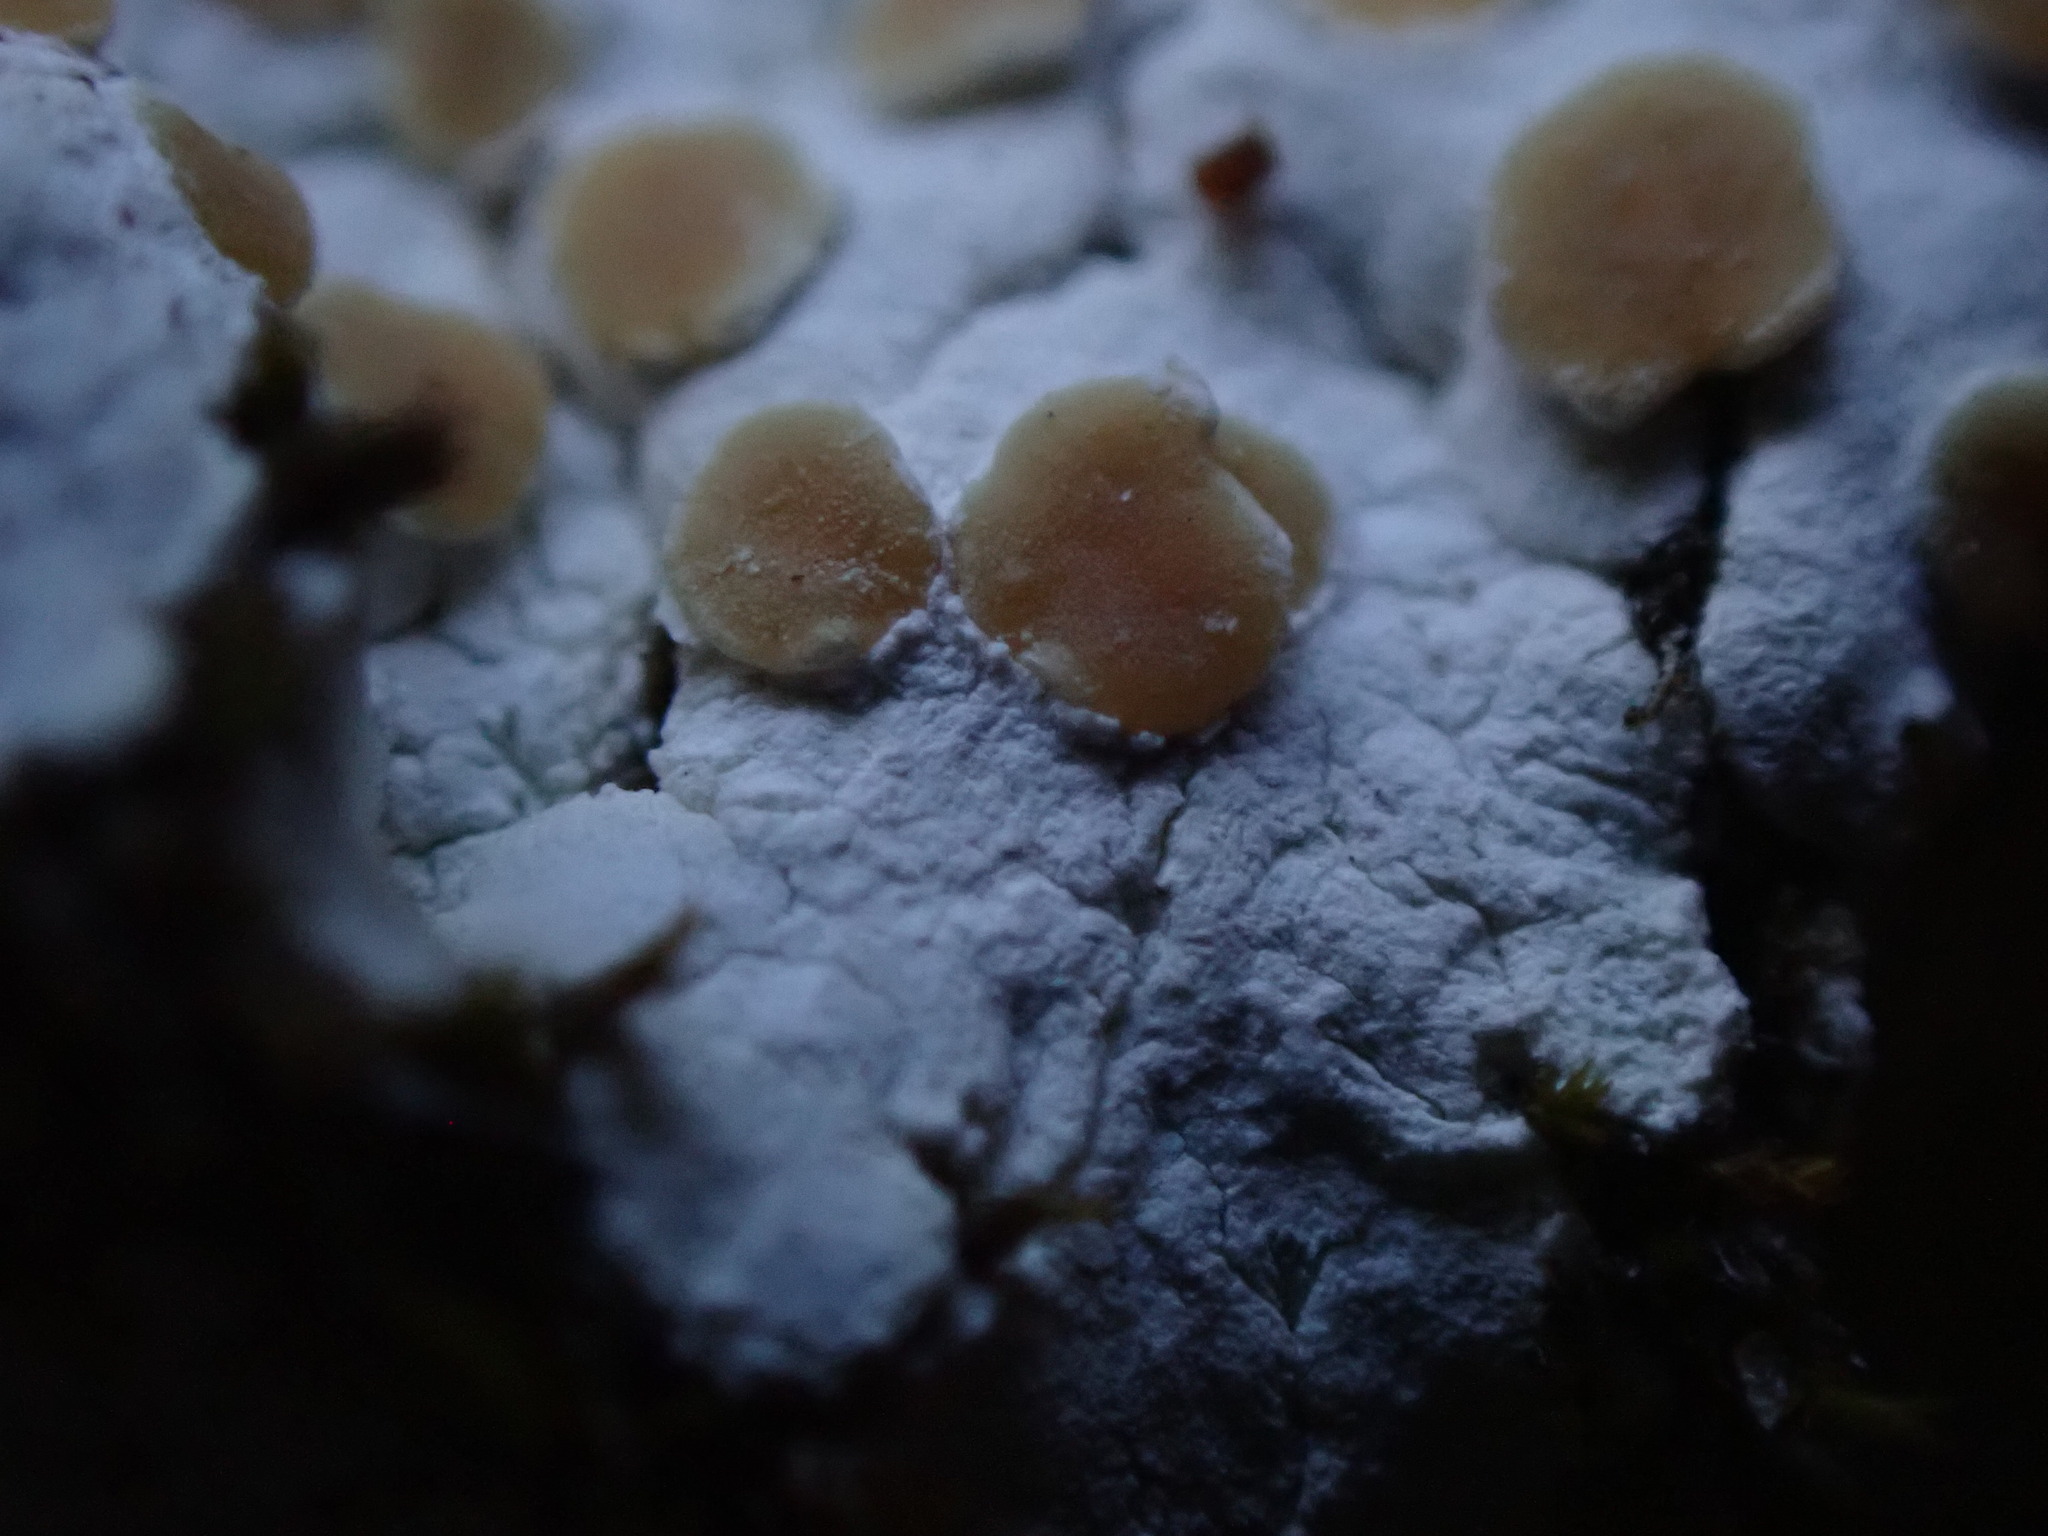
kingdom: Fungi
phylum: Ascomycota
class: Lecanoromycetes
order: Lecanorales
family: Stereocaulaceae
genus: Squamarina
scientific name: Squamarina lentigera
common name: Scaly breck-lichen
